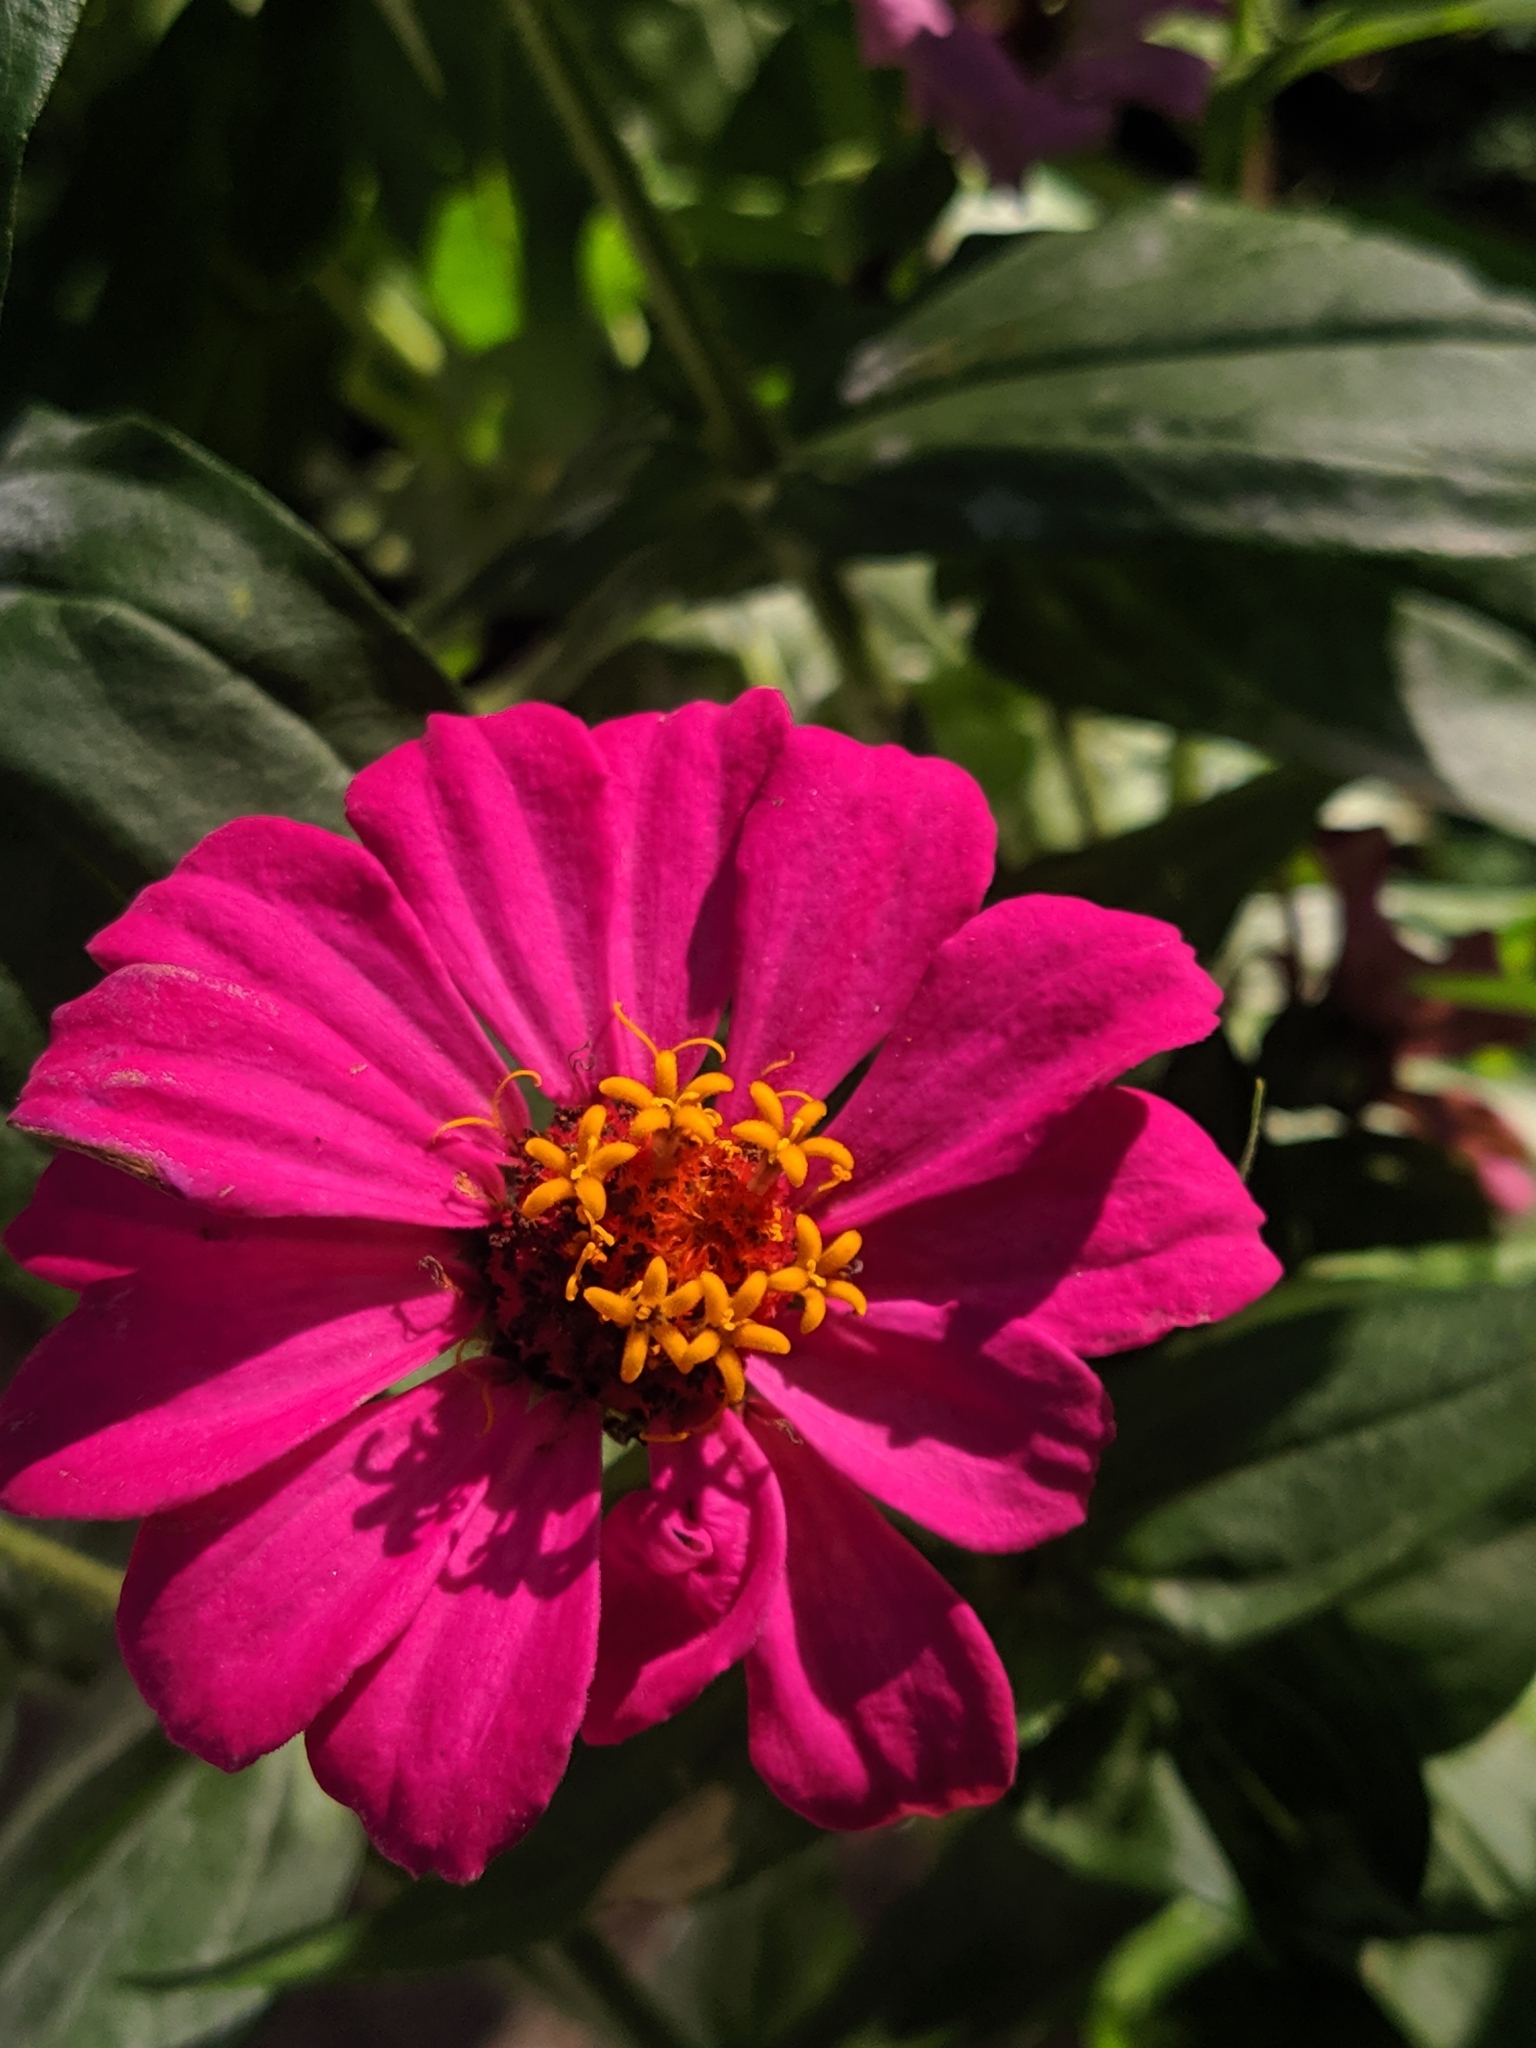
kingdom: Plantae
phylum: Tracheophyta
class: Magnoliopsida
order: Asterales
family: Asteraceae
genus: Zinnia
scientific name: Zinnia elegans
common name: Youth-and-age
